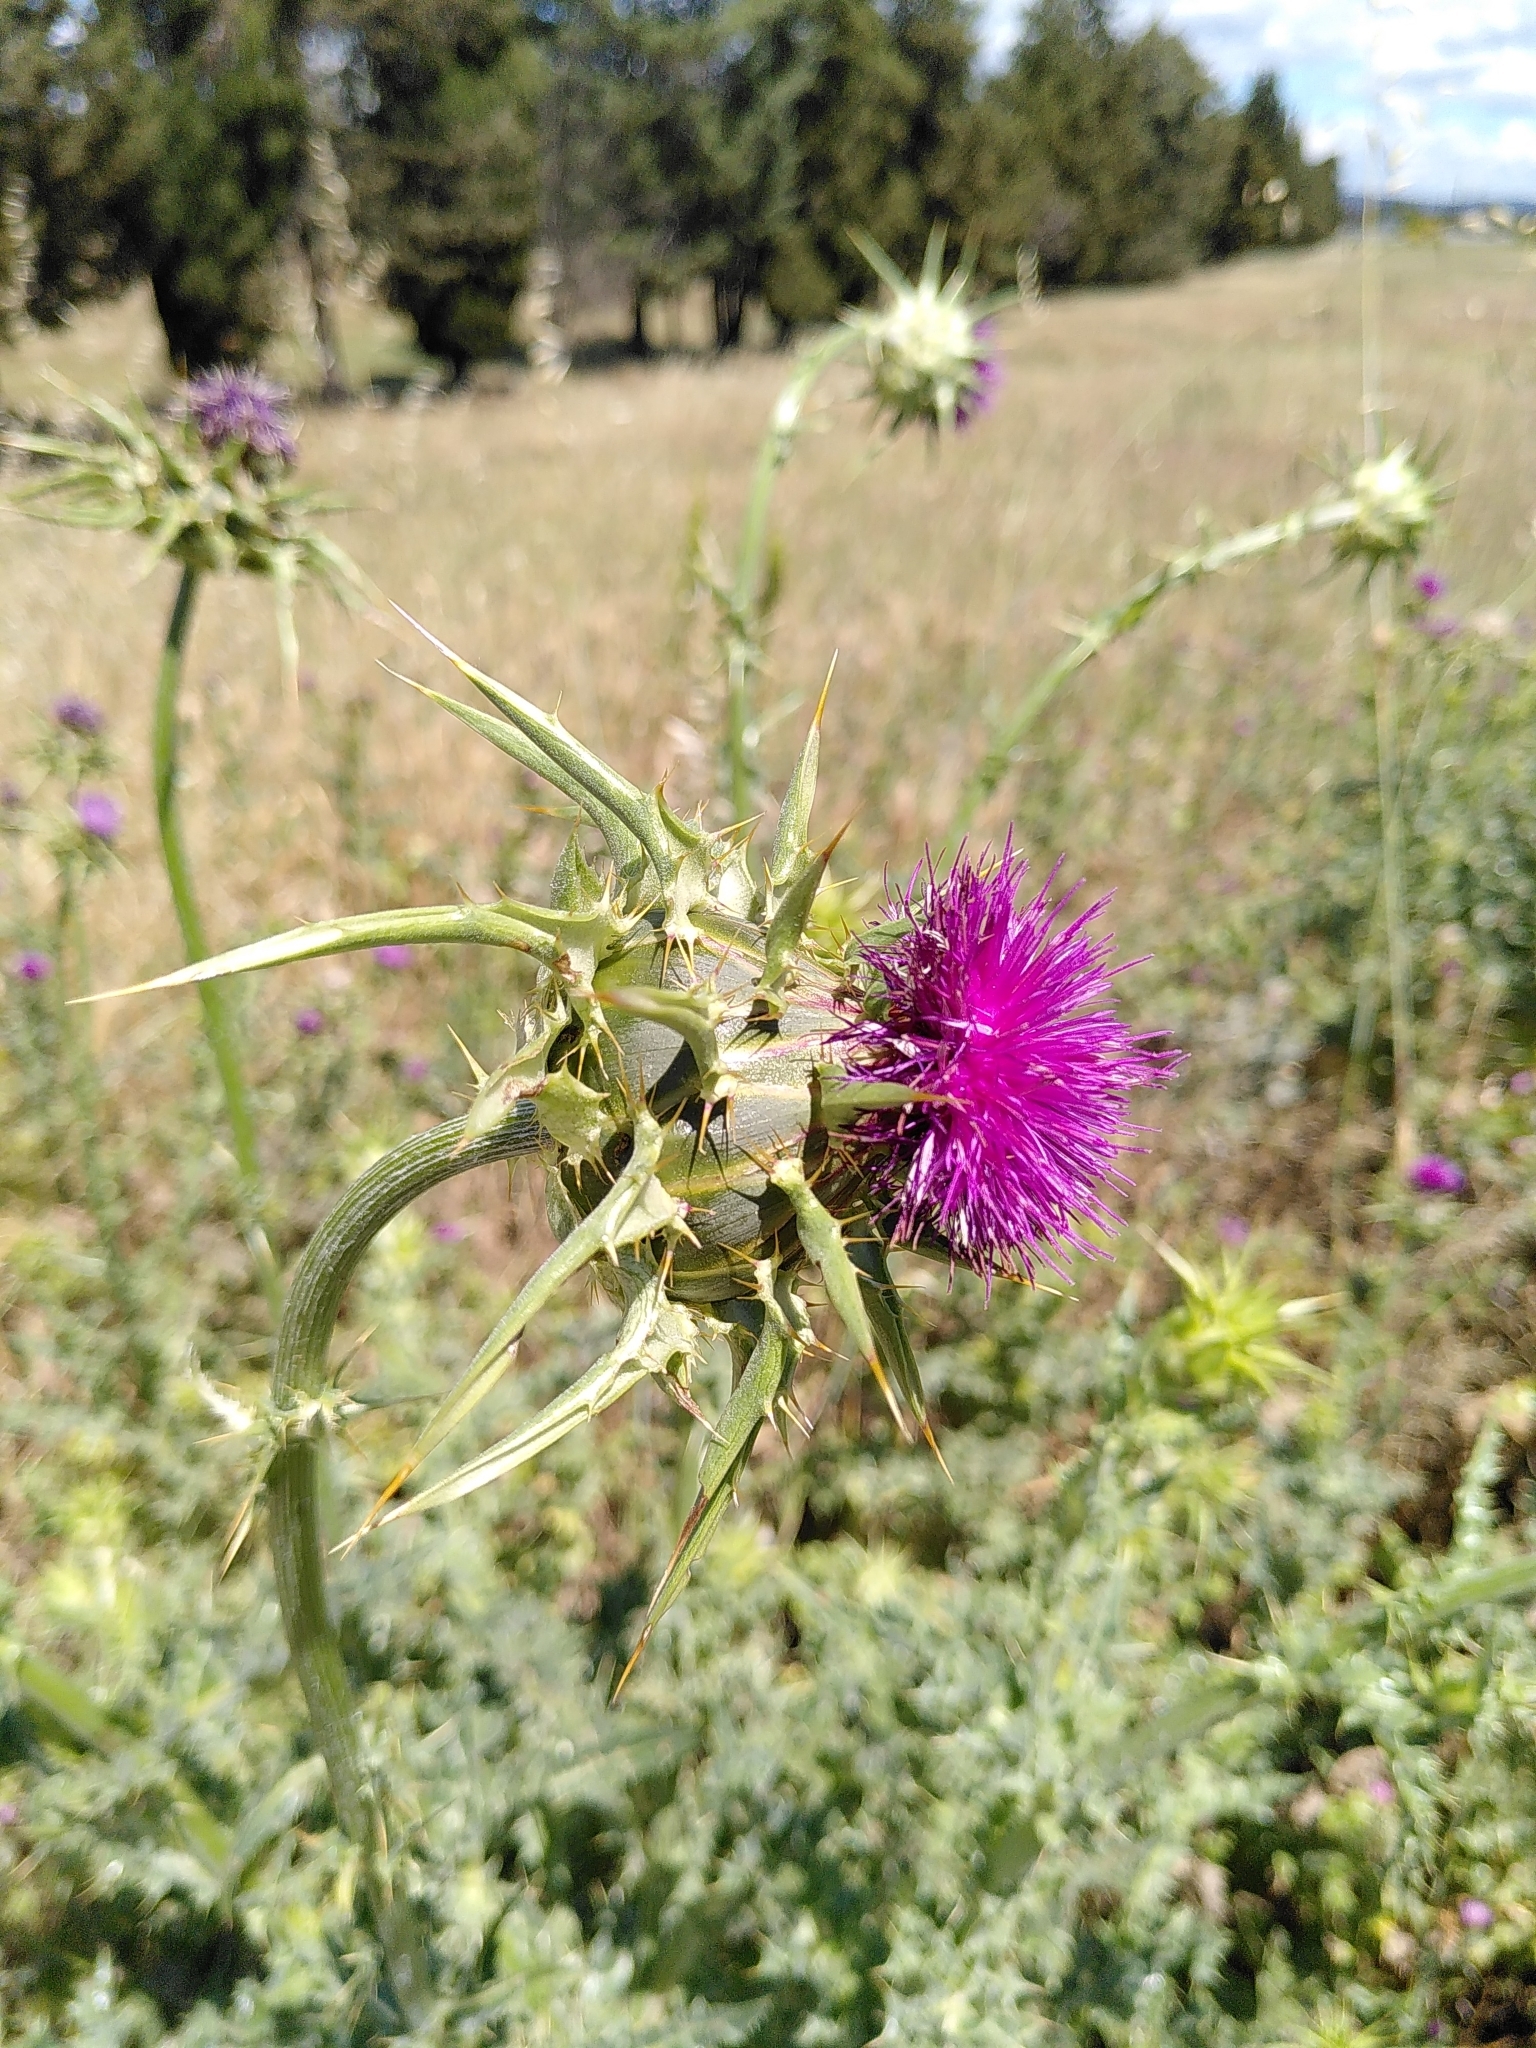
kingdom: Plantae
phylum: Tracheophyta
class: Magnoliopsida
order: Asterales
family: Asteraceae
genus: Silybum
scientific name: Silybum marianum
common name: Milk thistle
